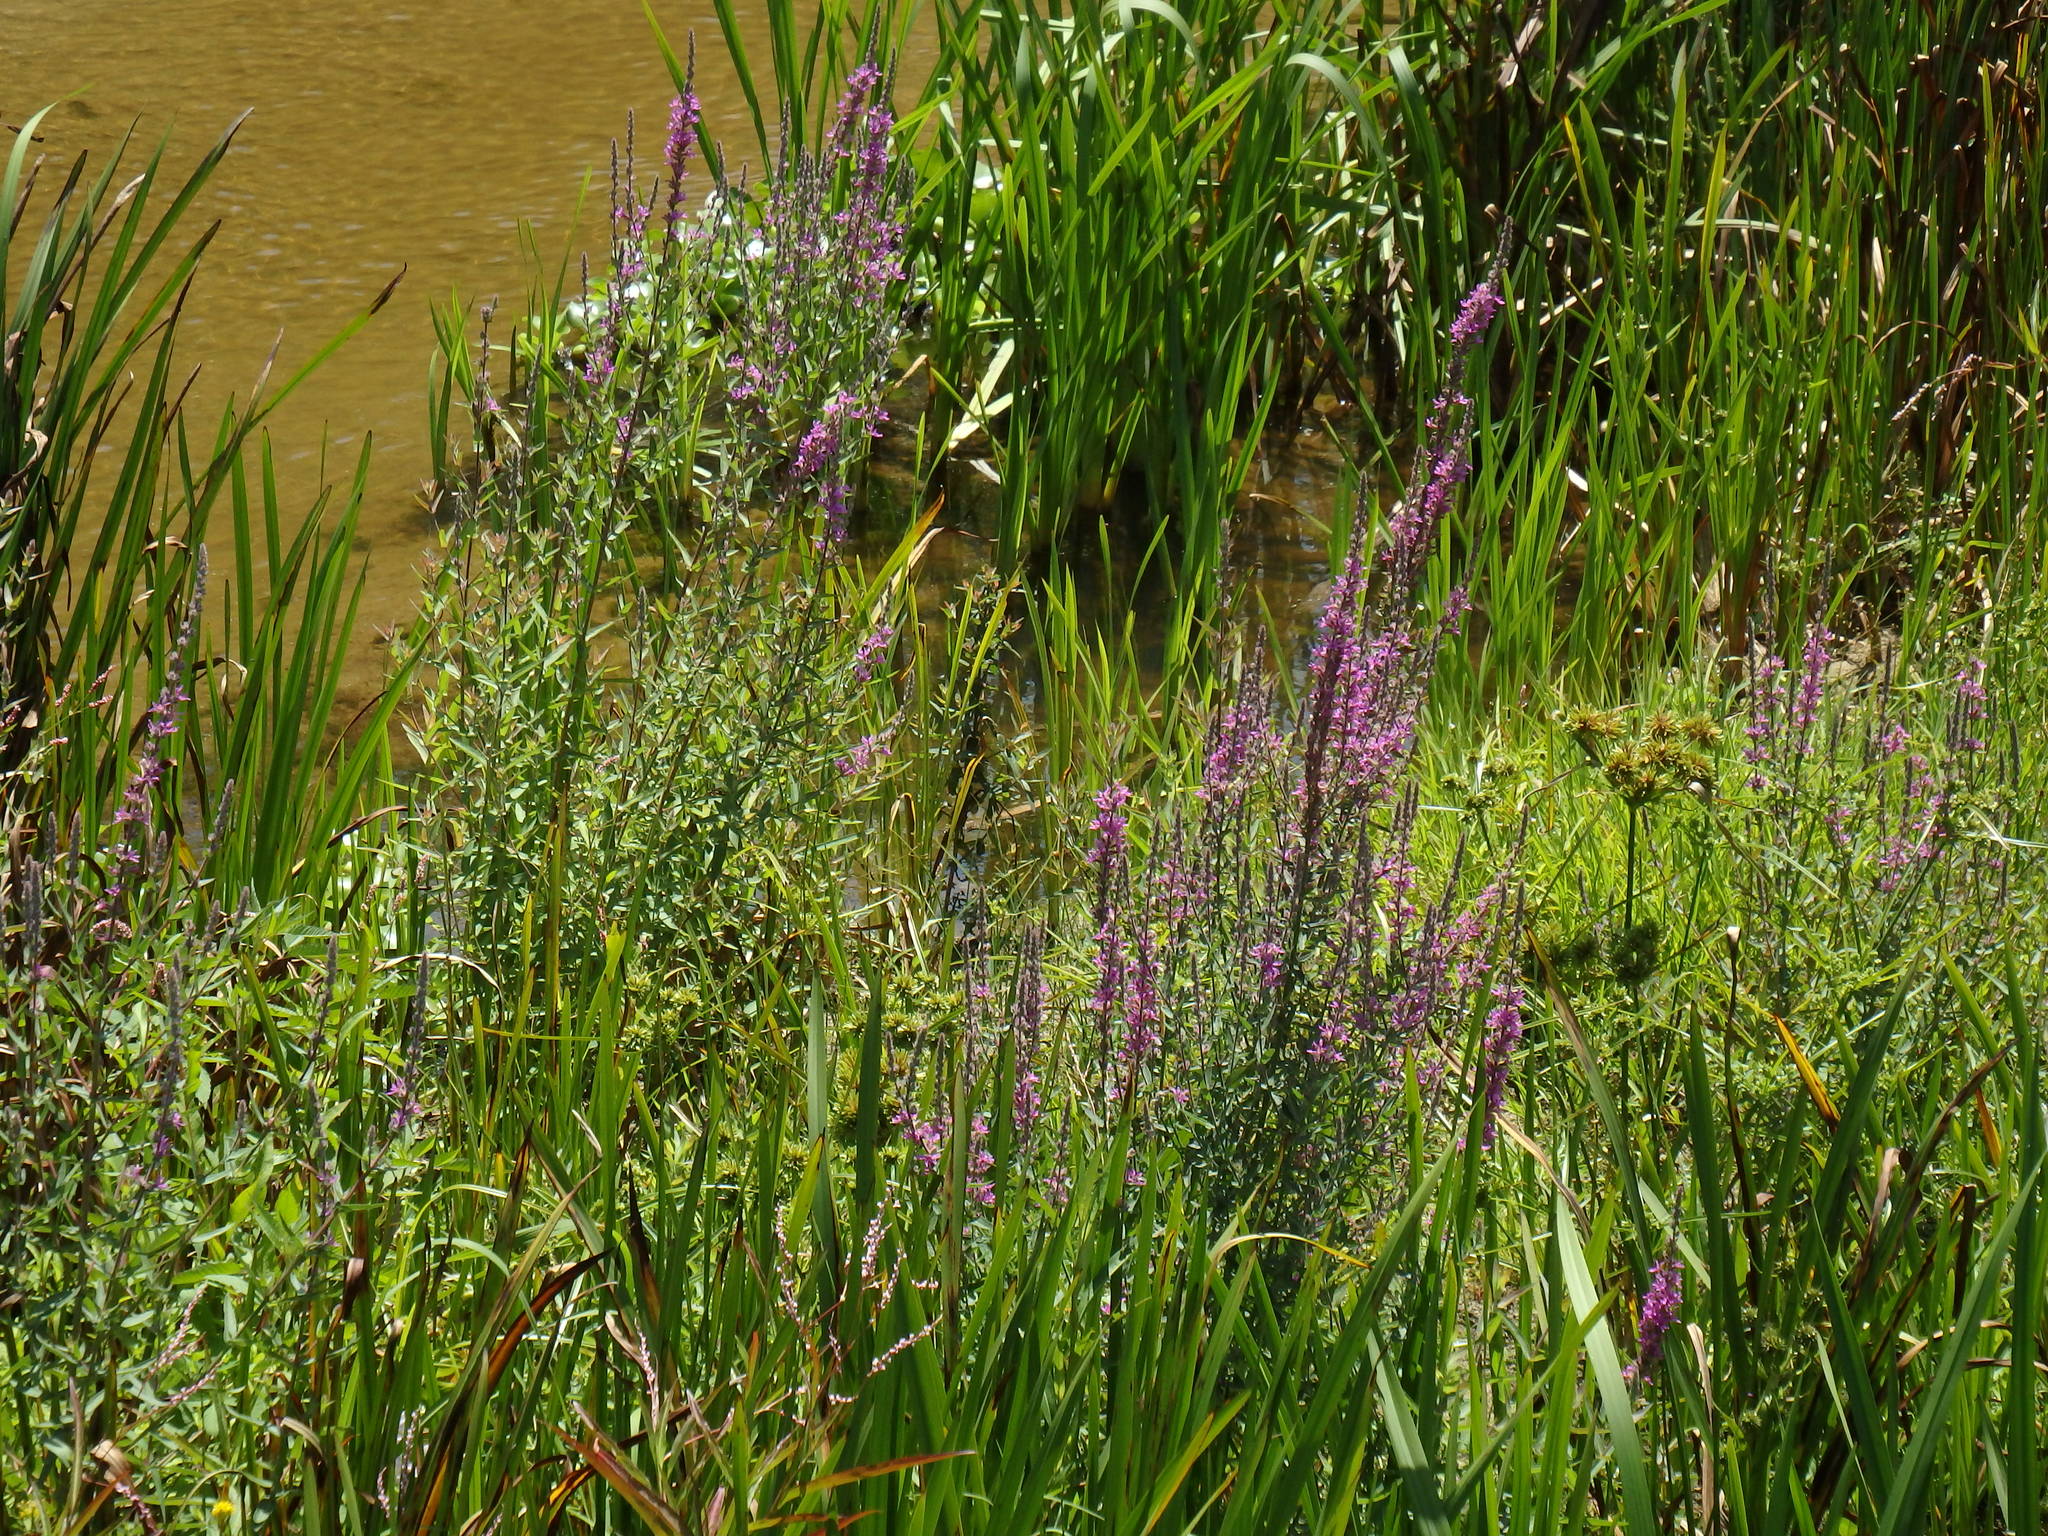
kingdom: Plantae
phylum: Tracheophyta
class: Magnoliopsida
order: Myrtales
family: Lythraceae
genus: Lythrum
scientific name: Lythrum salicaria
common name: Purple loosestrife
